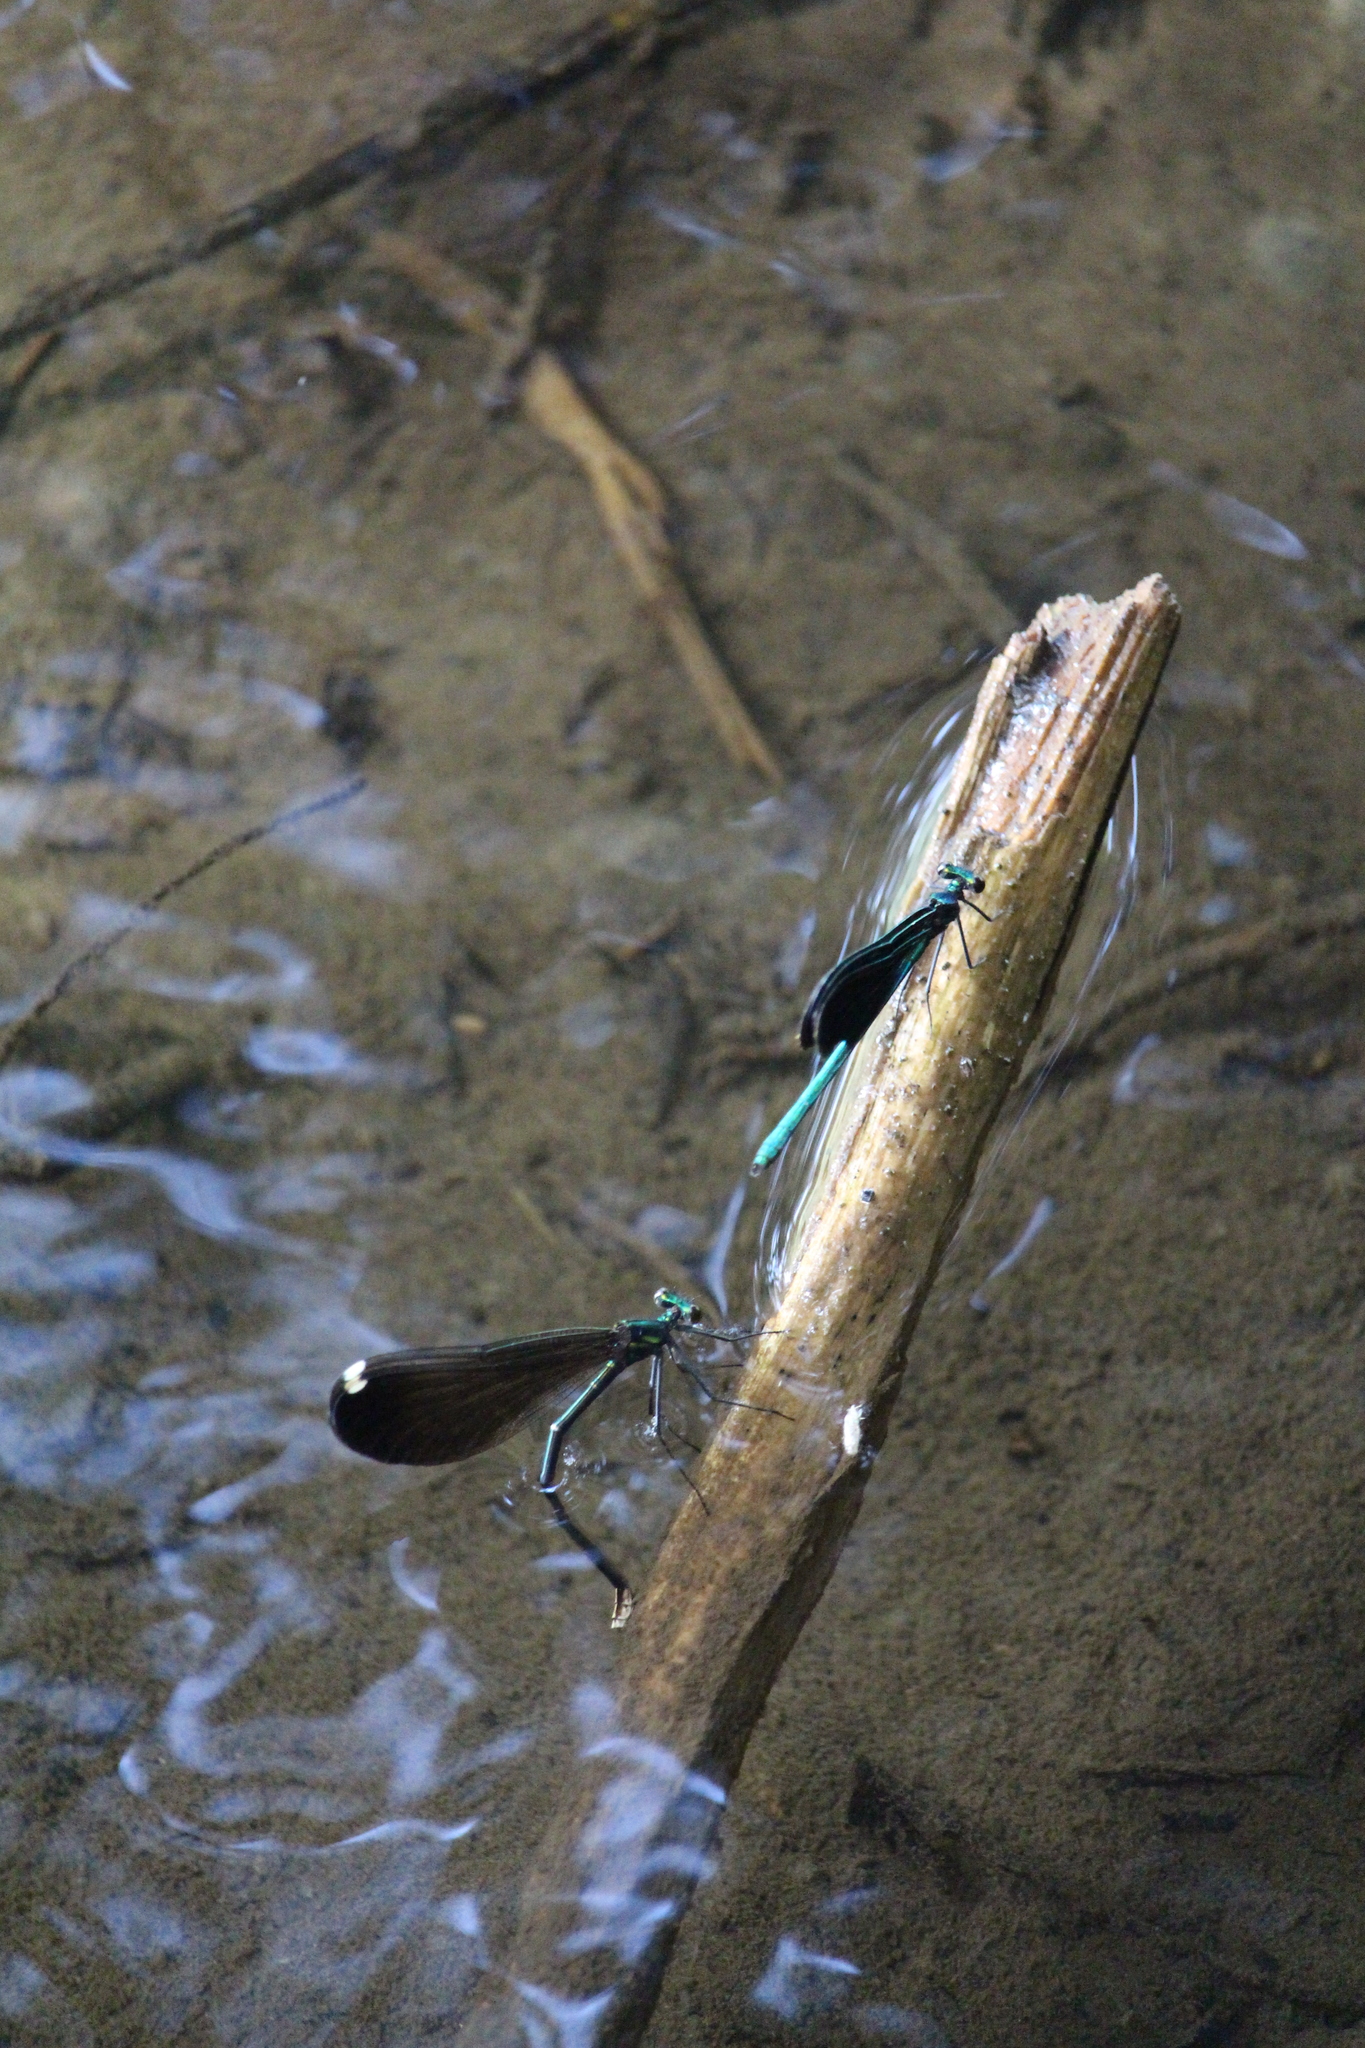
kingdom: Animalia
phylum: Arthropoda
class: Insecta
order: Odonata
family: Calopterygidae
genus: Calopteryx
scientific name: Calopteryx maculata
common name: Ebony jewelwing
